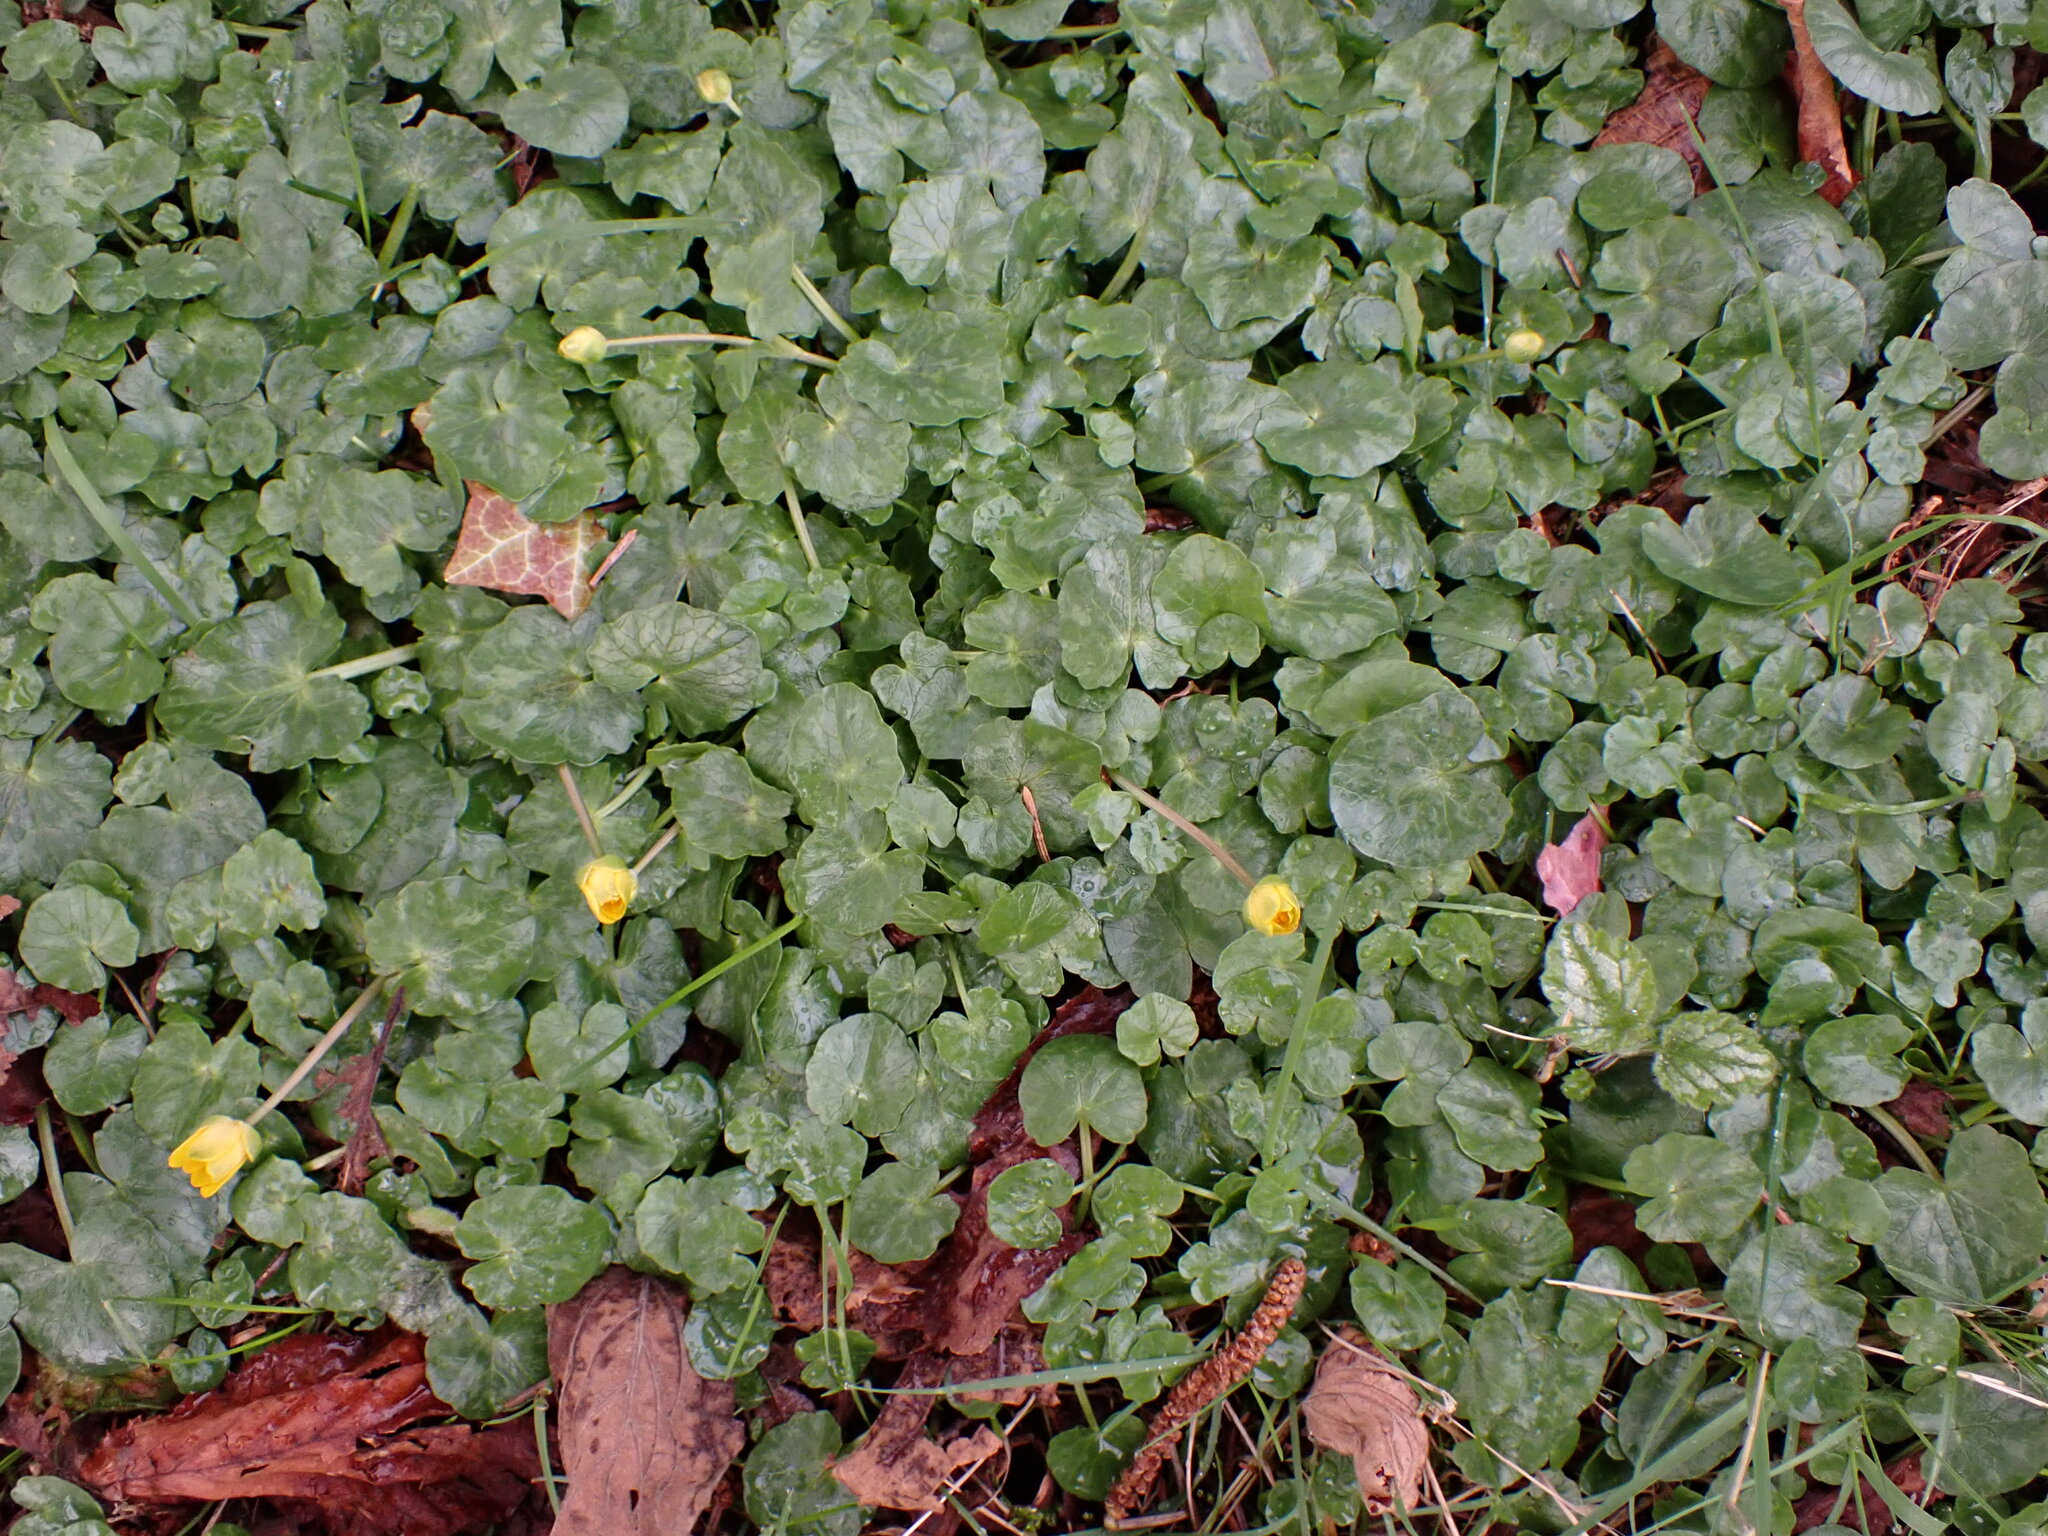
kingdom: Plantae
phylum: Tracheophyta
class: Magnoliopsida
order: Ranunculales
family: Ranunculaceae
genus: Ficaria
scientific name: Ficaria verna
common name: Lesser celandine
